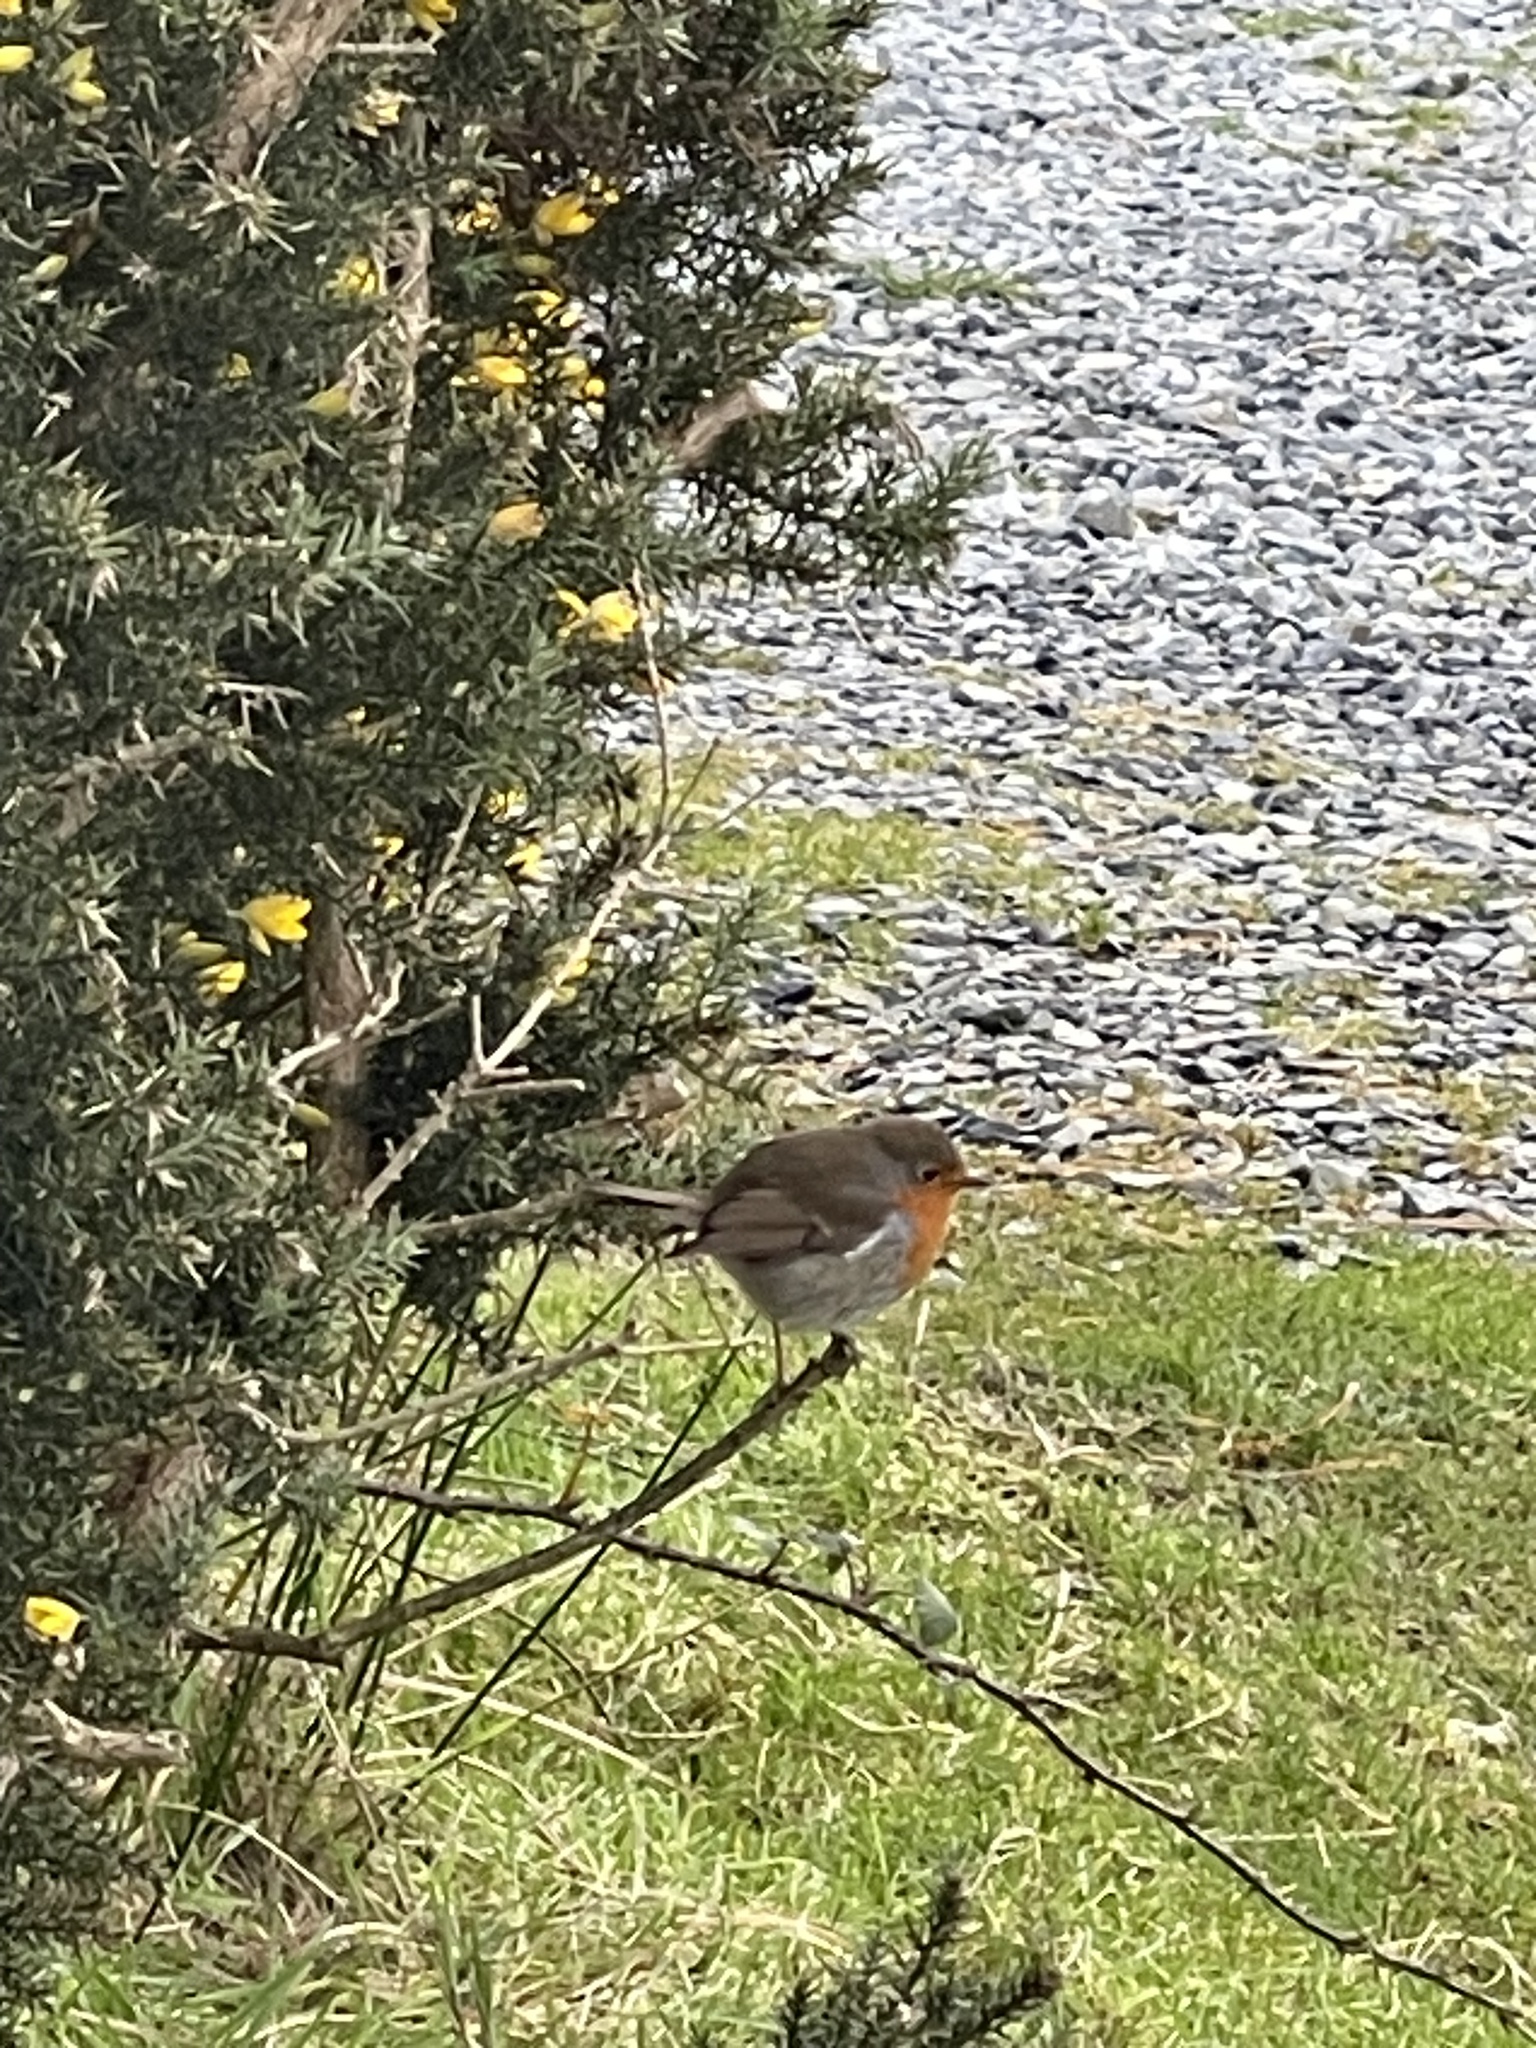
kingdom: Animalia
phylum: Chordata
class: Aves
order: Passeriformes
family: Muscicapidae
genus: Erithacus
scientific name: Erithacus rubecula
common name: European robin
